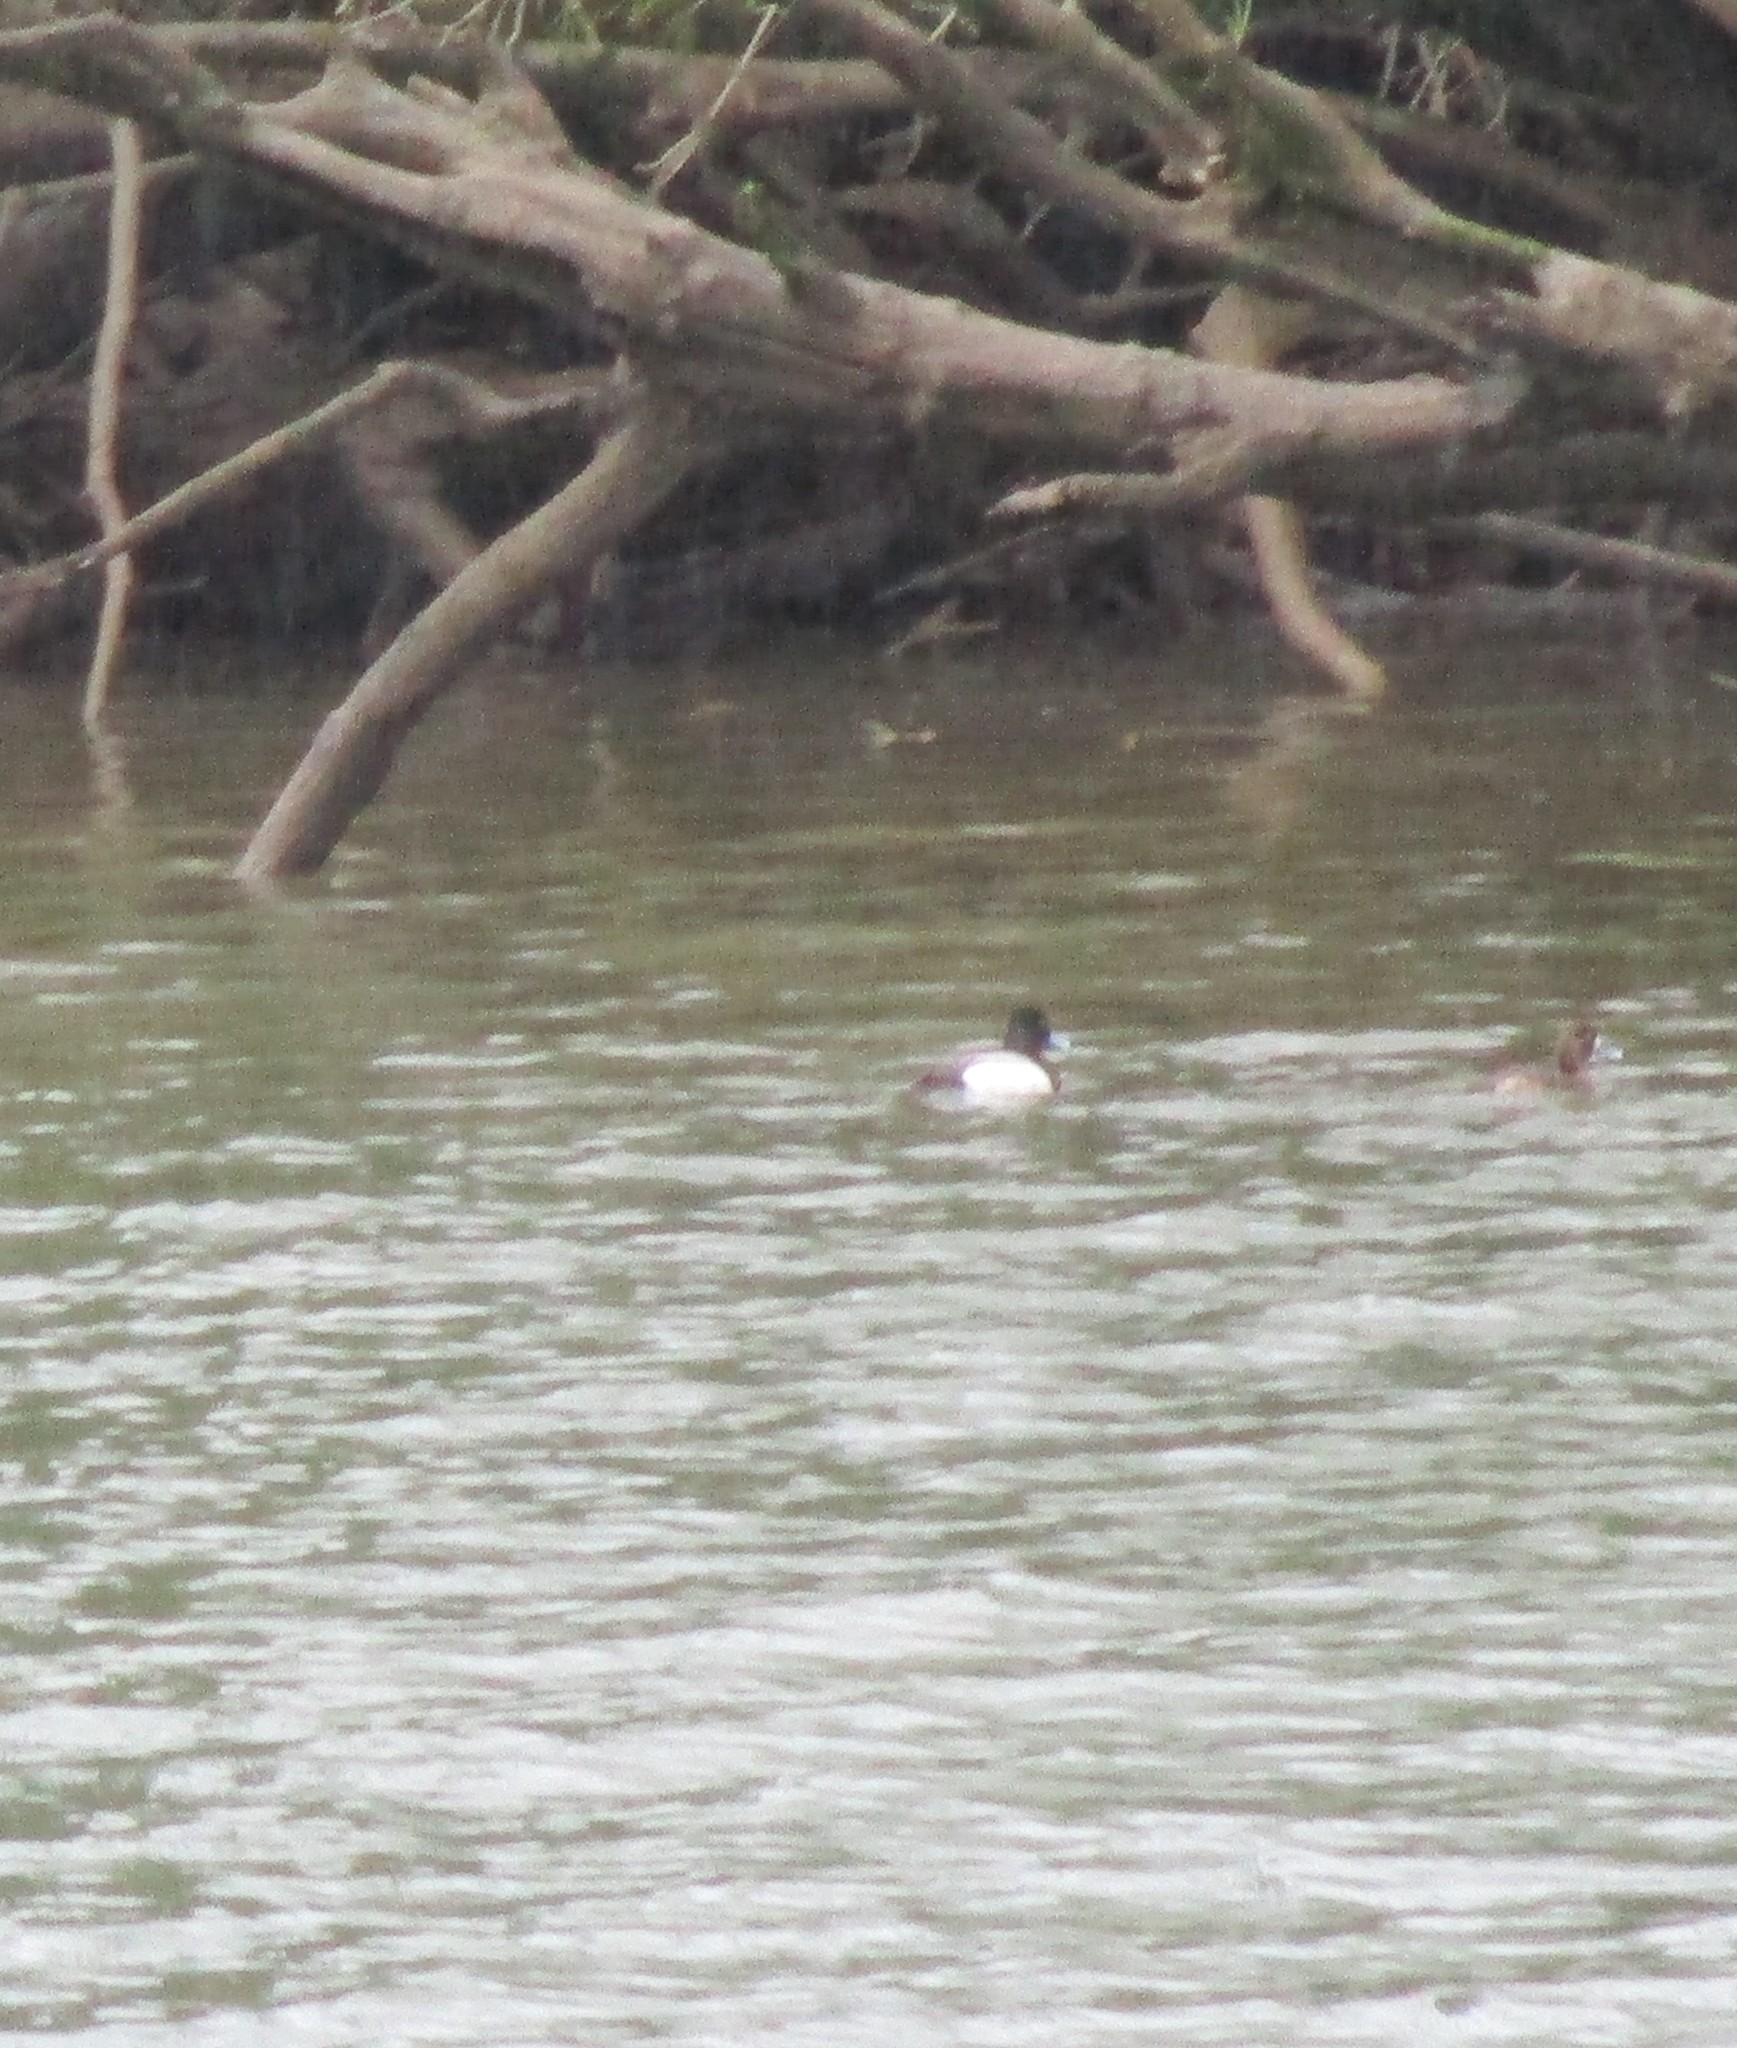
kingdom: Animalia
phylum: Chordata
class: Aves
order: Anseriformes
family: Anatidae
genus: Aythya
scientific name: Aythya marila
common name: Greater scaup
